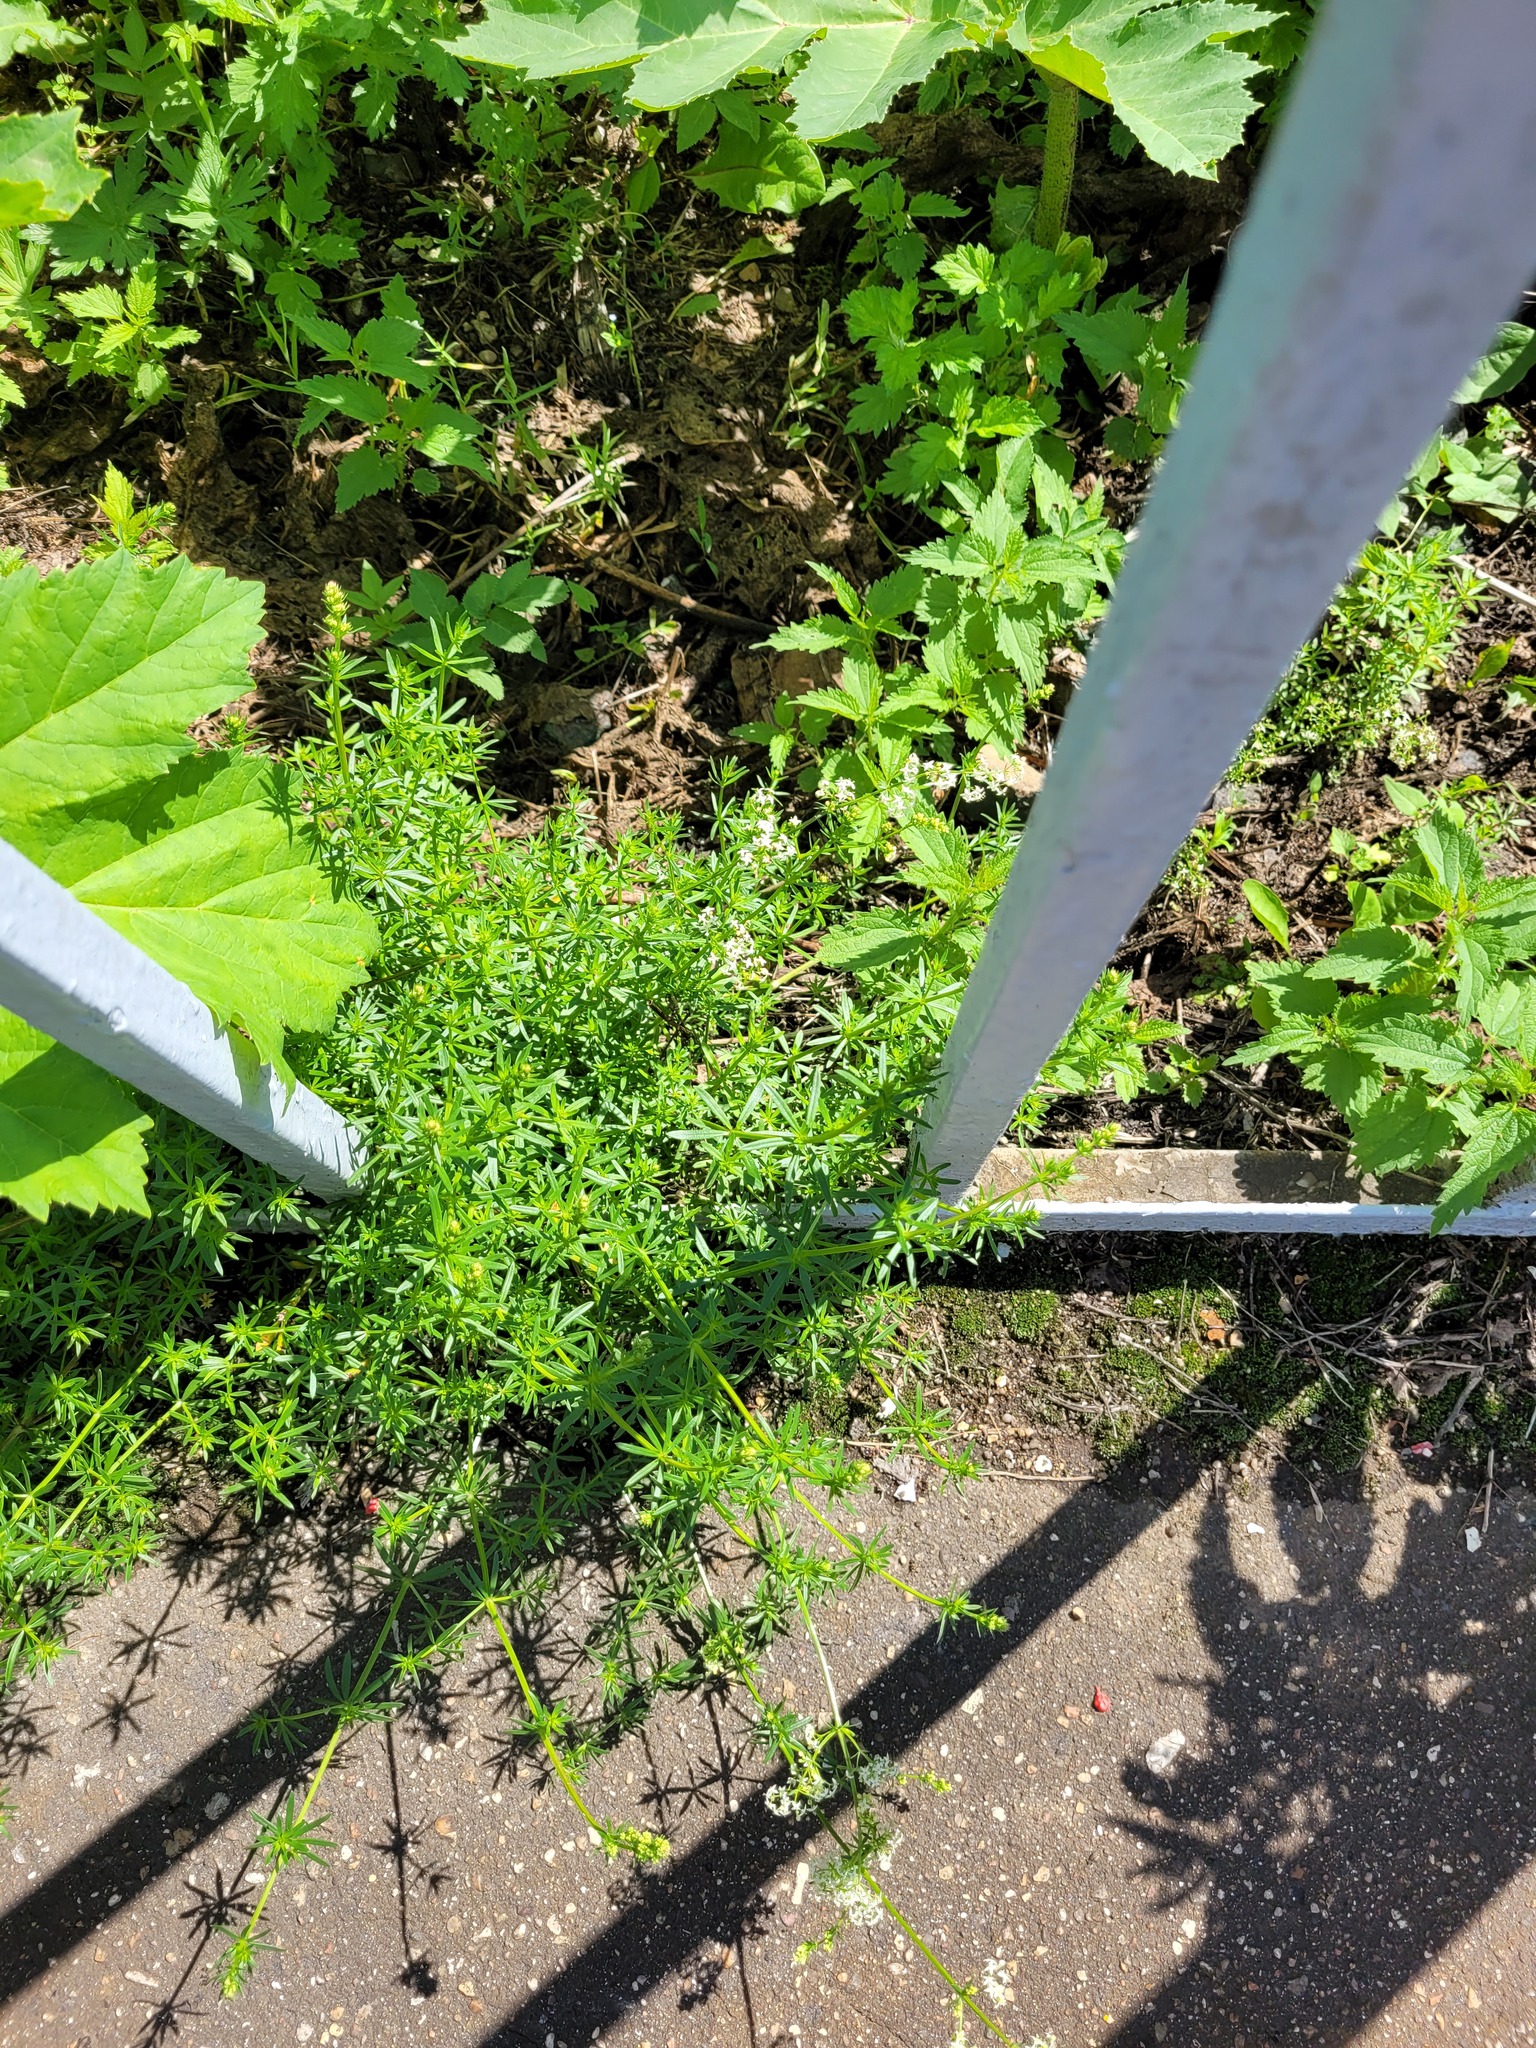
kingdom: Plantae
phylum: Tracheophyta
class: Magnoliopsida
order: Gentianales
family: Rubiaceae
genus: Galium
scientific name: Galium mollugo
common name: Hedge bedstraw
